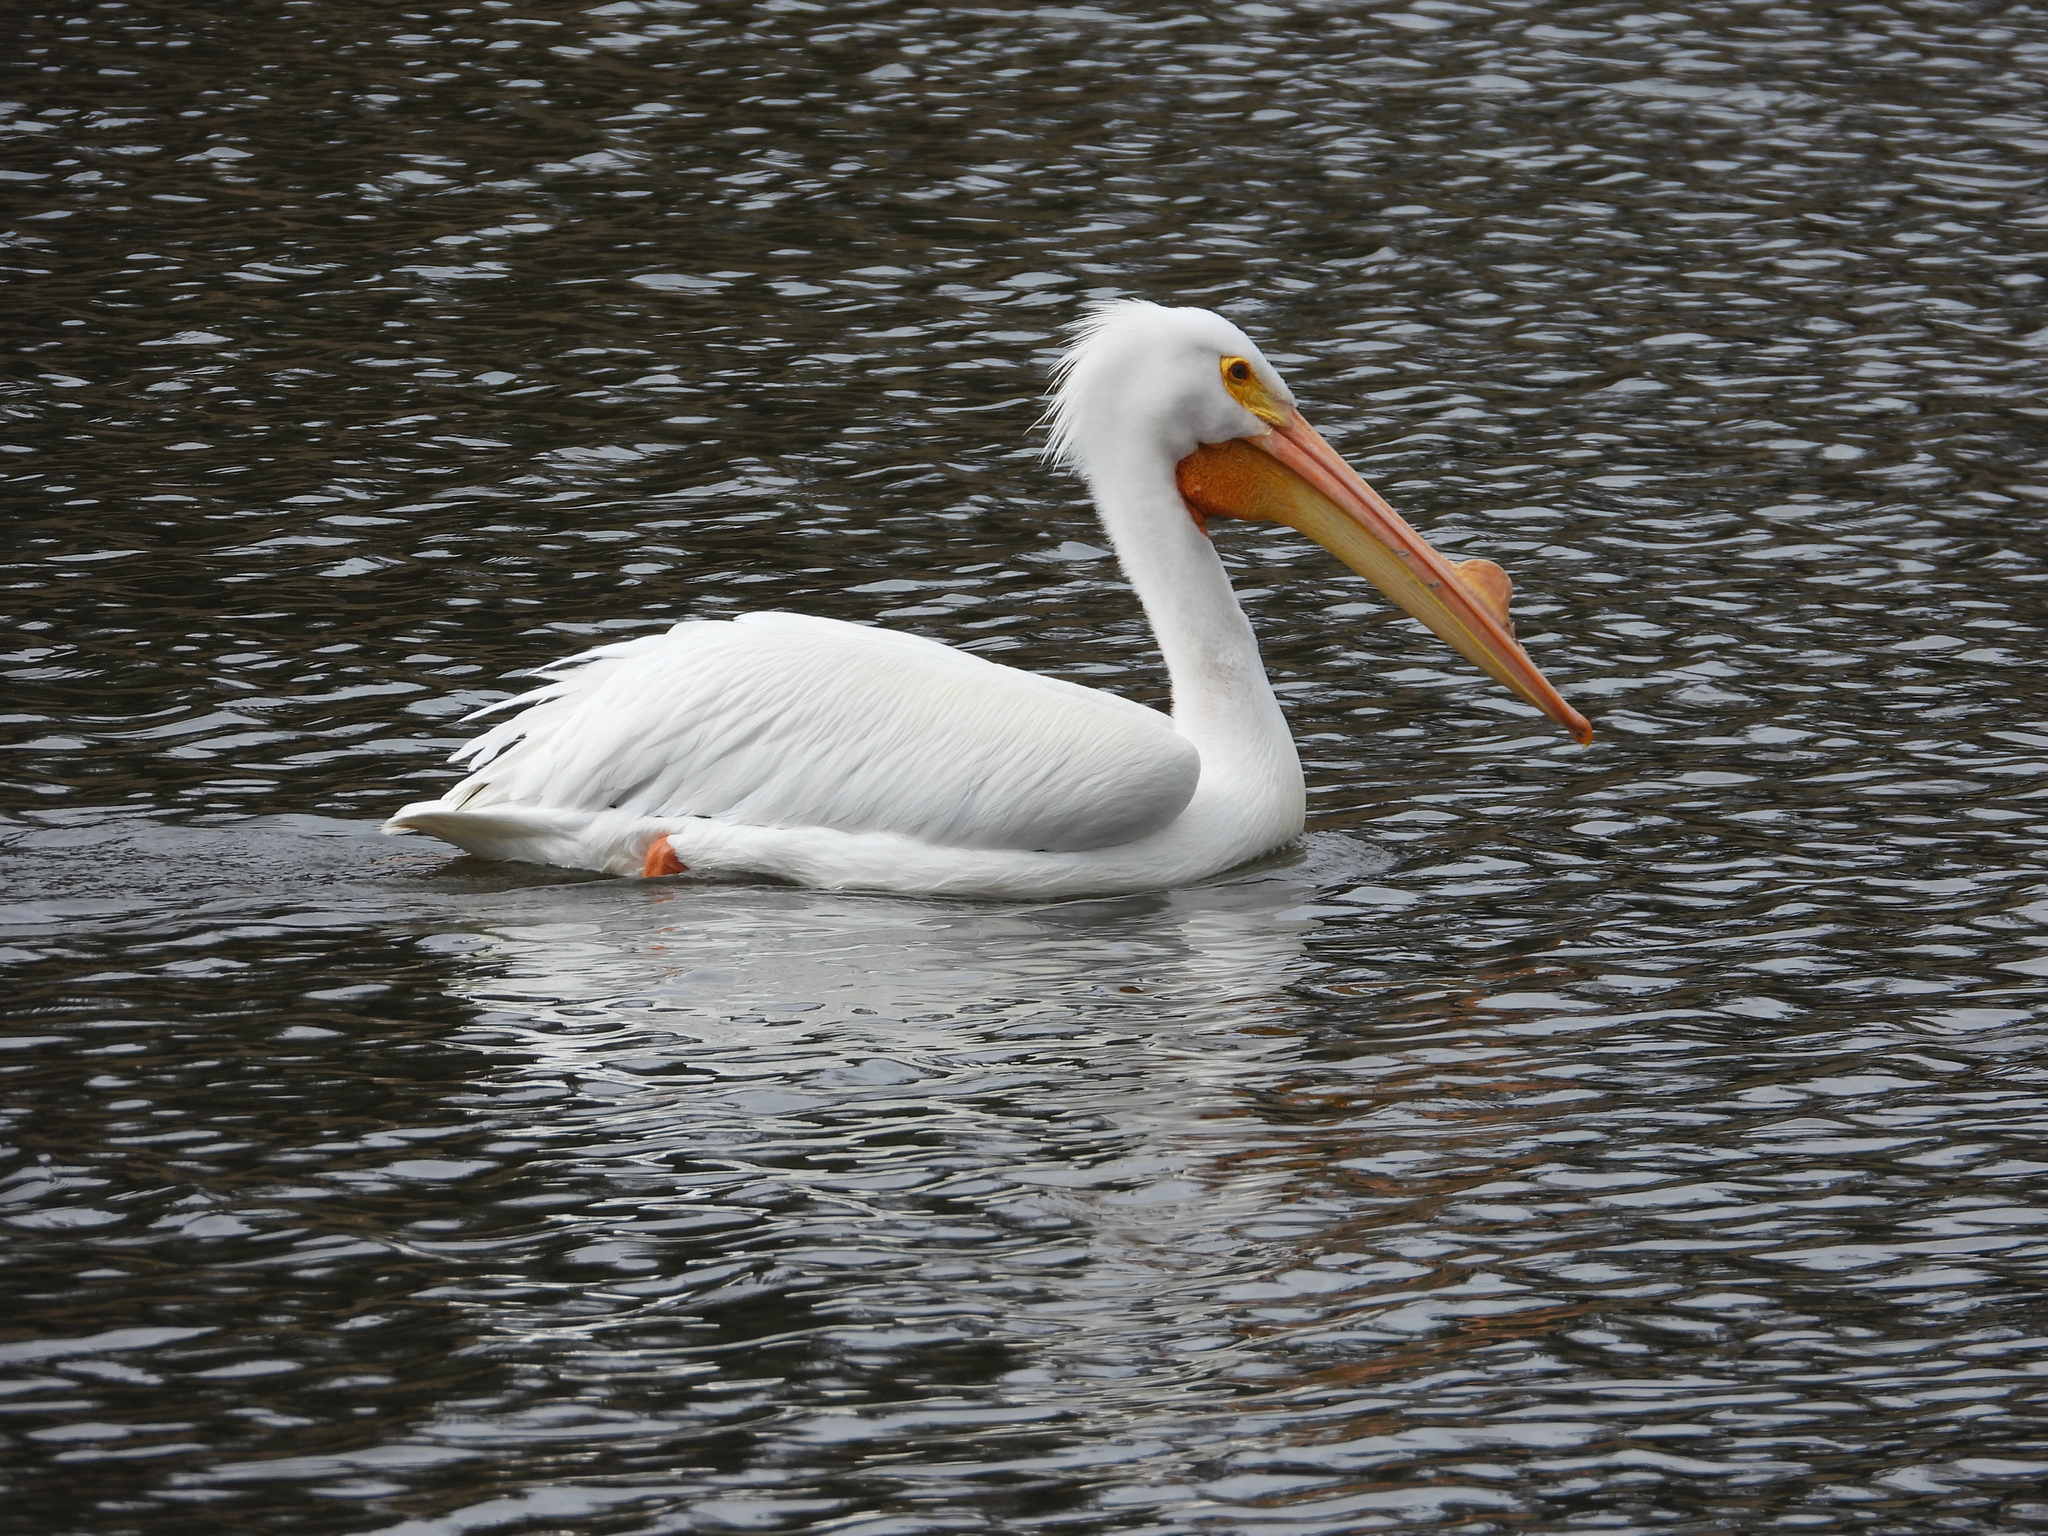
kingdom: Animalia
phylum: Chordata
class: Aves
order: Pelecaniformes
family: Pelecanidae
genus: Pelecanus
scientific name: Pelecanus erythrorhynchos
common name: American white pelican
